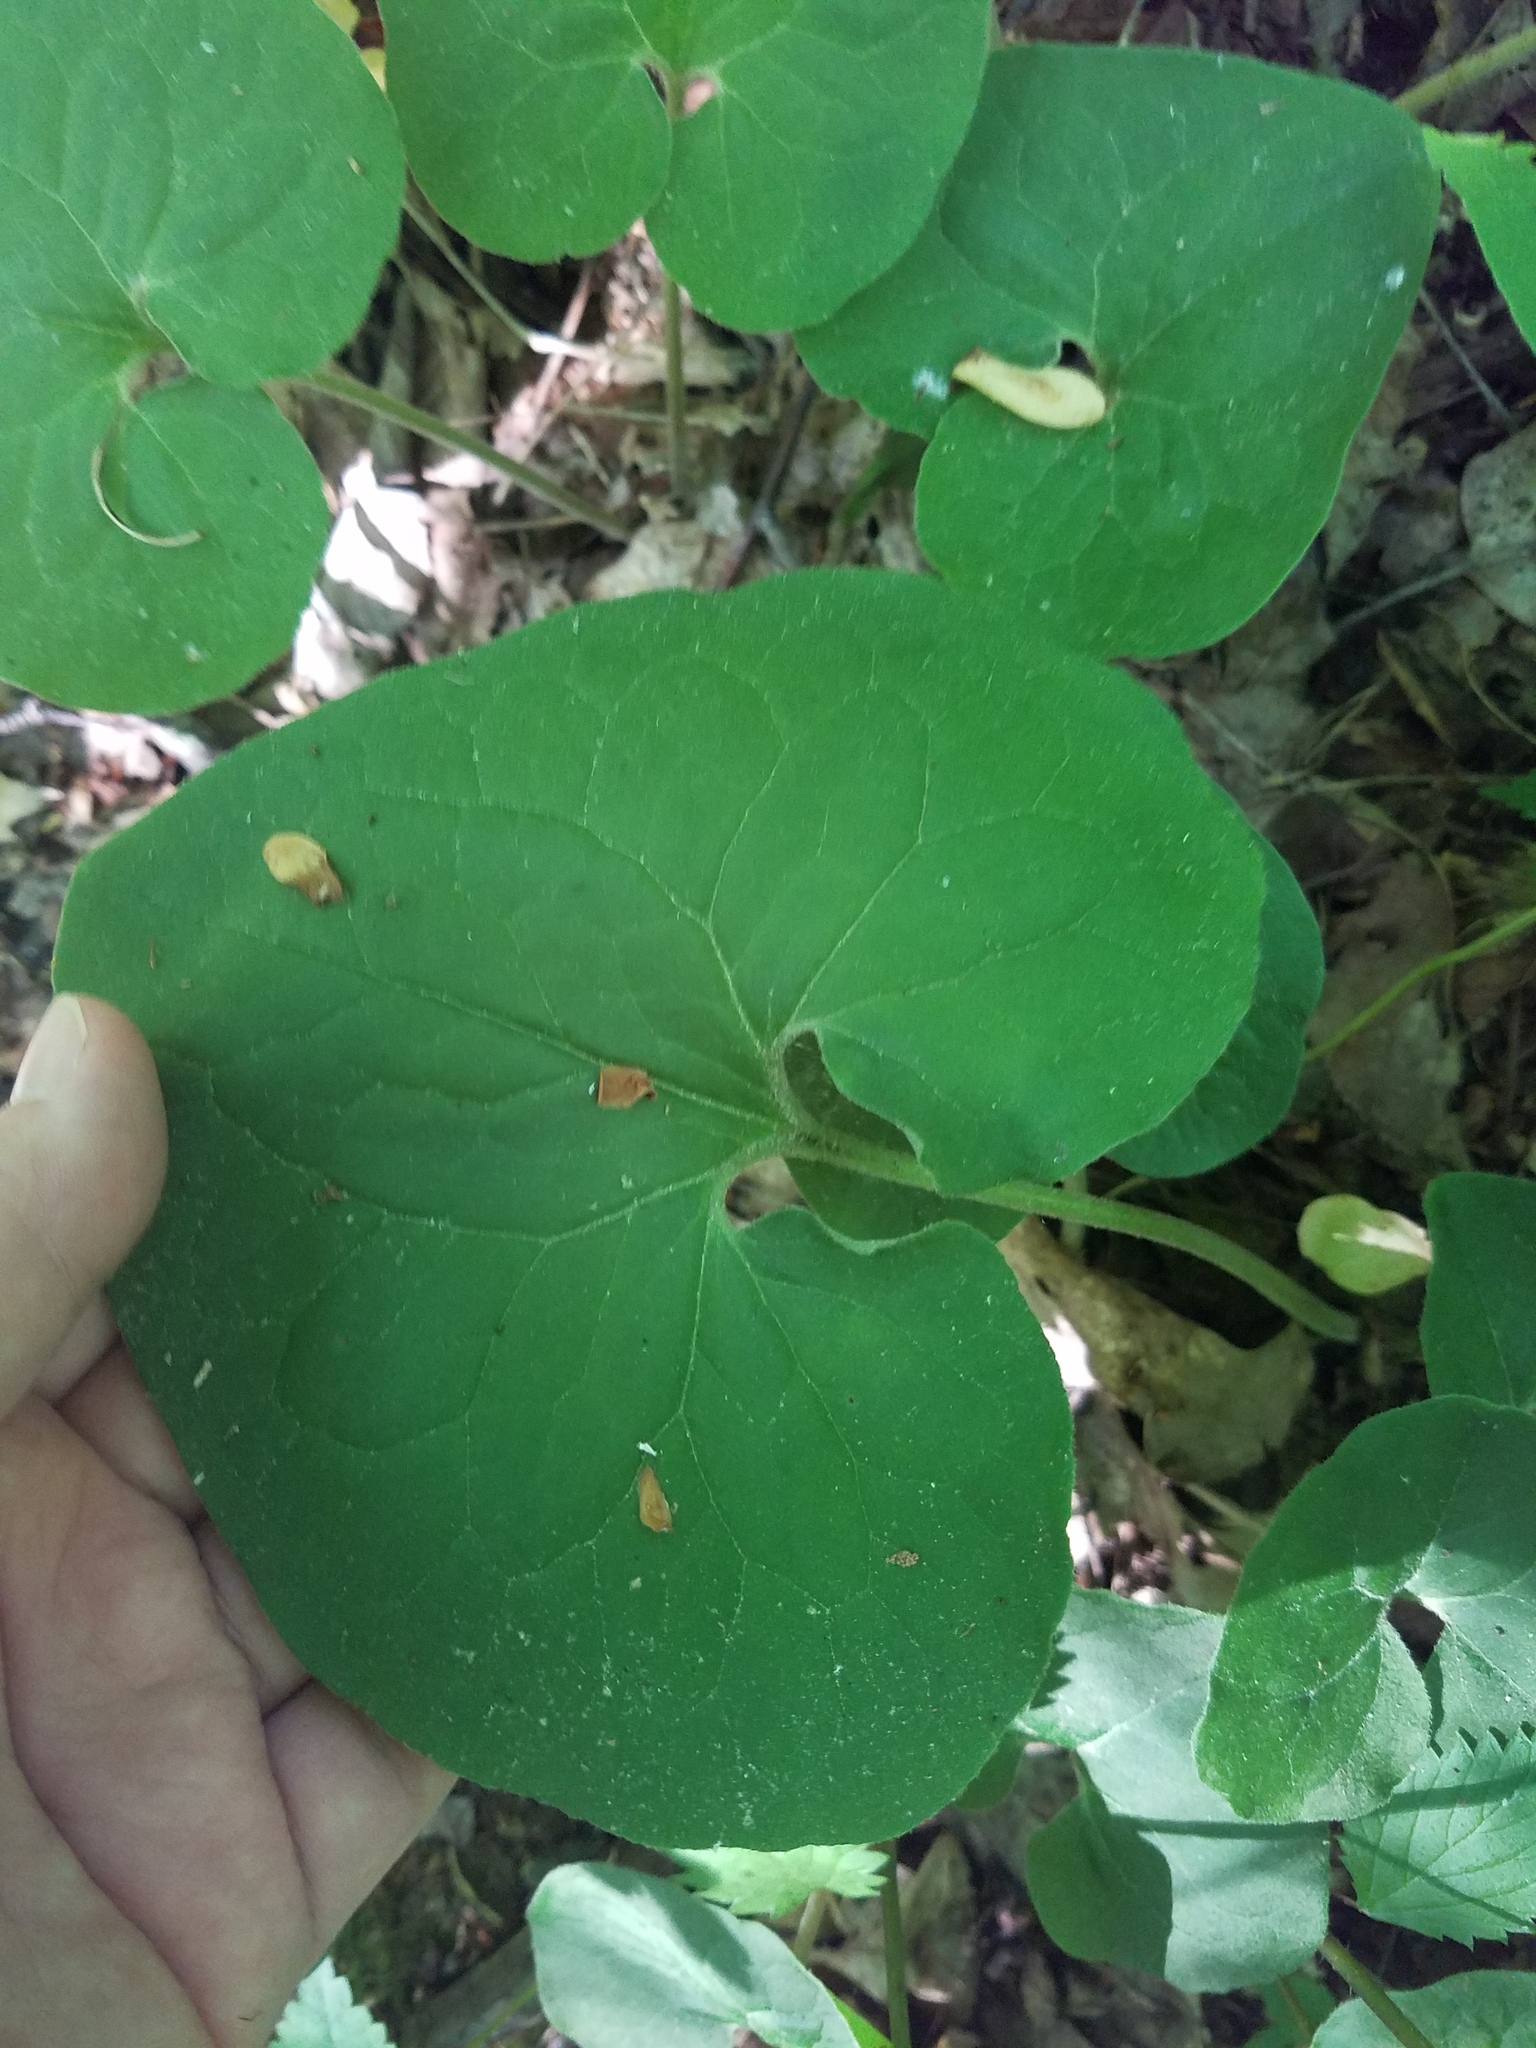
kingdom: Plantae
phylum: Tracheophyta
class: Magnoliopsida
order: Piperales
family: Aristolochiaceae
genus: Asarum
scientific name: Asarum canadense
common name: Wild ginger
